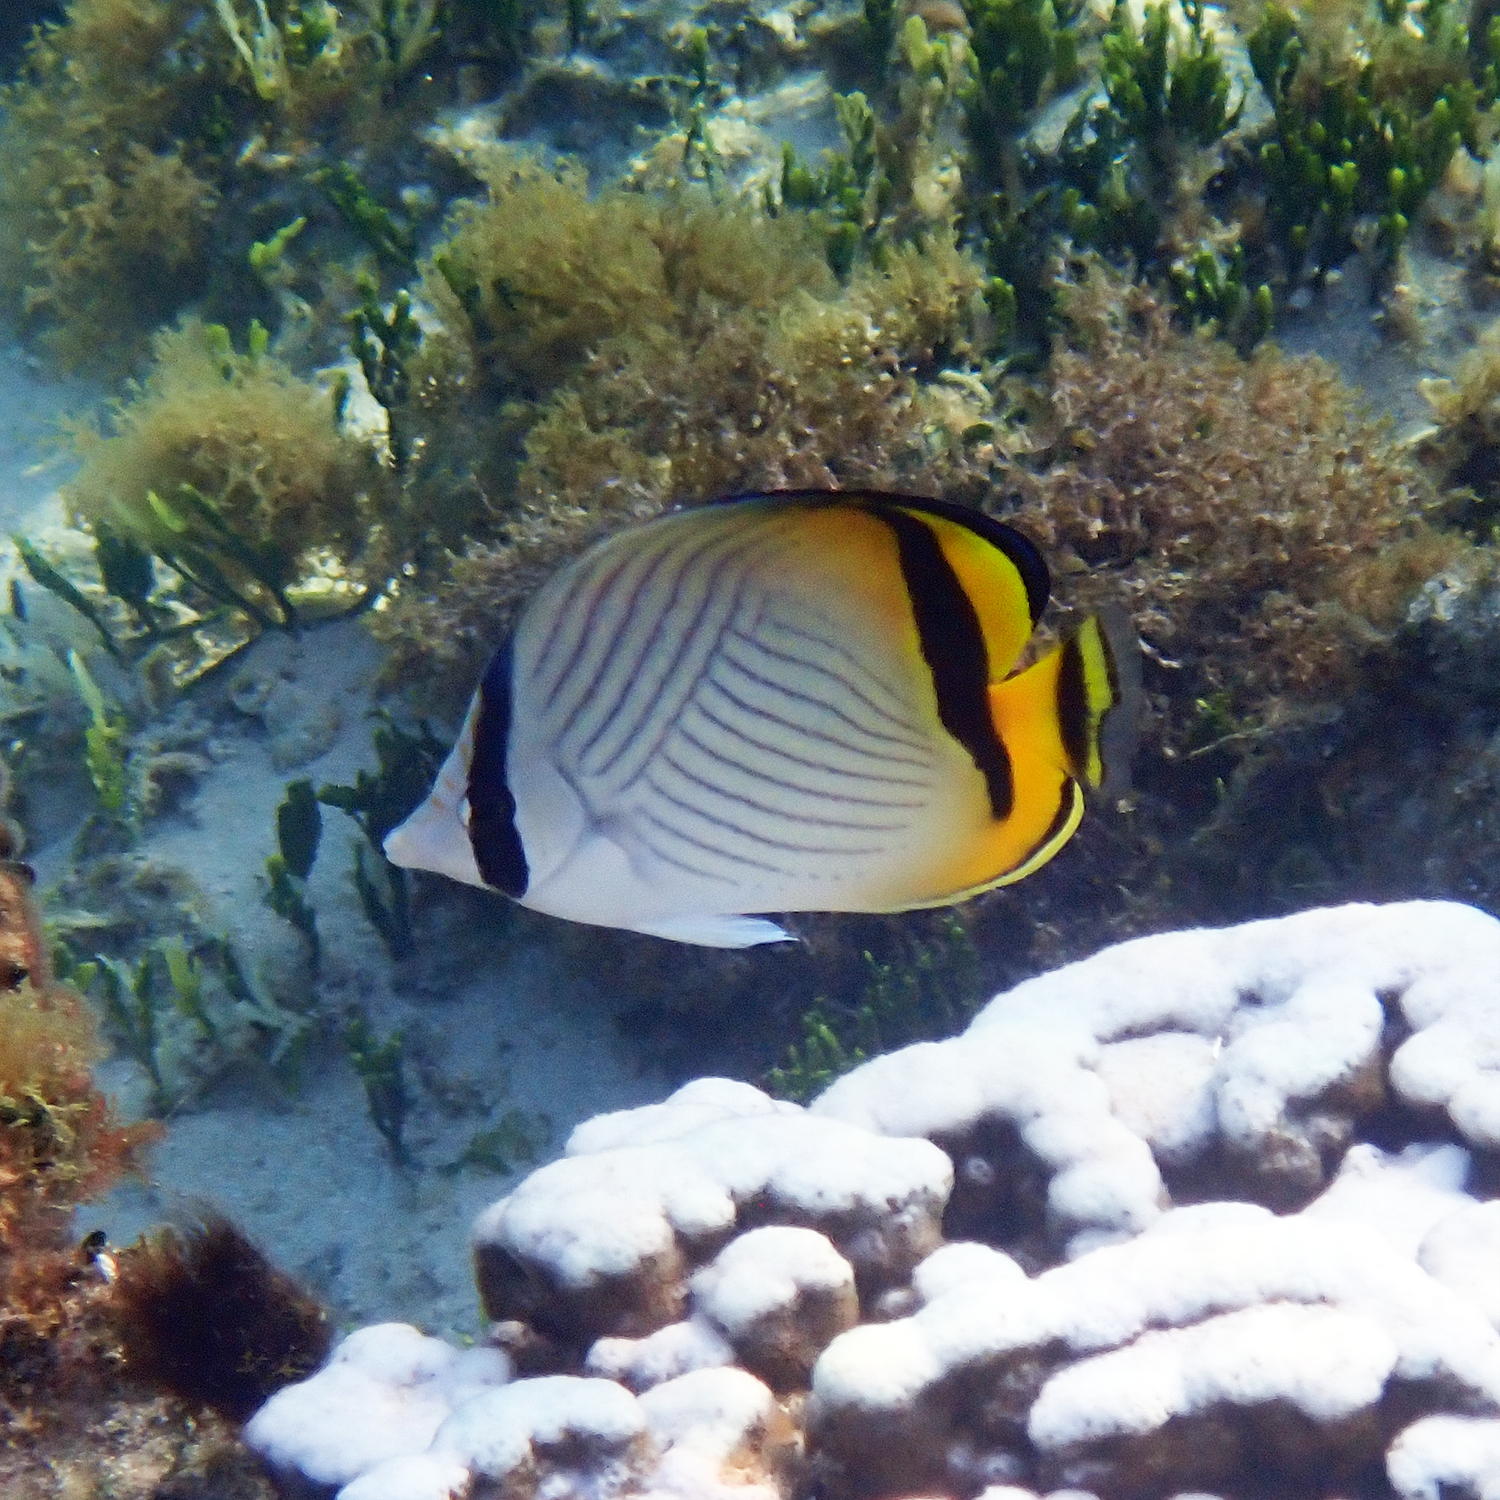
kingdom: Animalia
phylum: Chordata
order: Perciformes
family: Chaetodontidae
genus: Chaetodon
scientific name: Chaetodon vagabundus
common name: Vagabond butterflyfish
